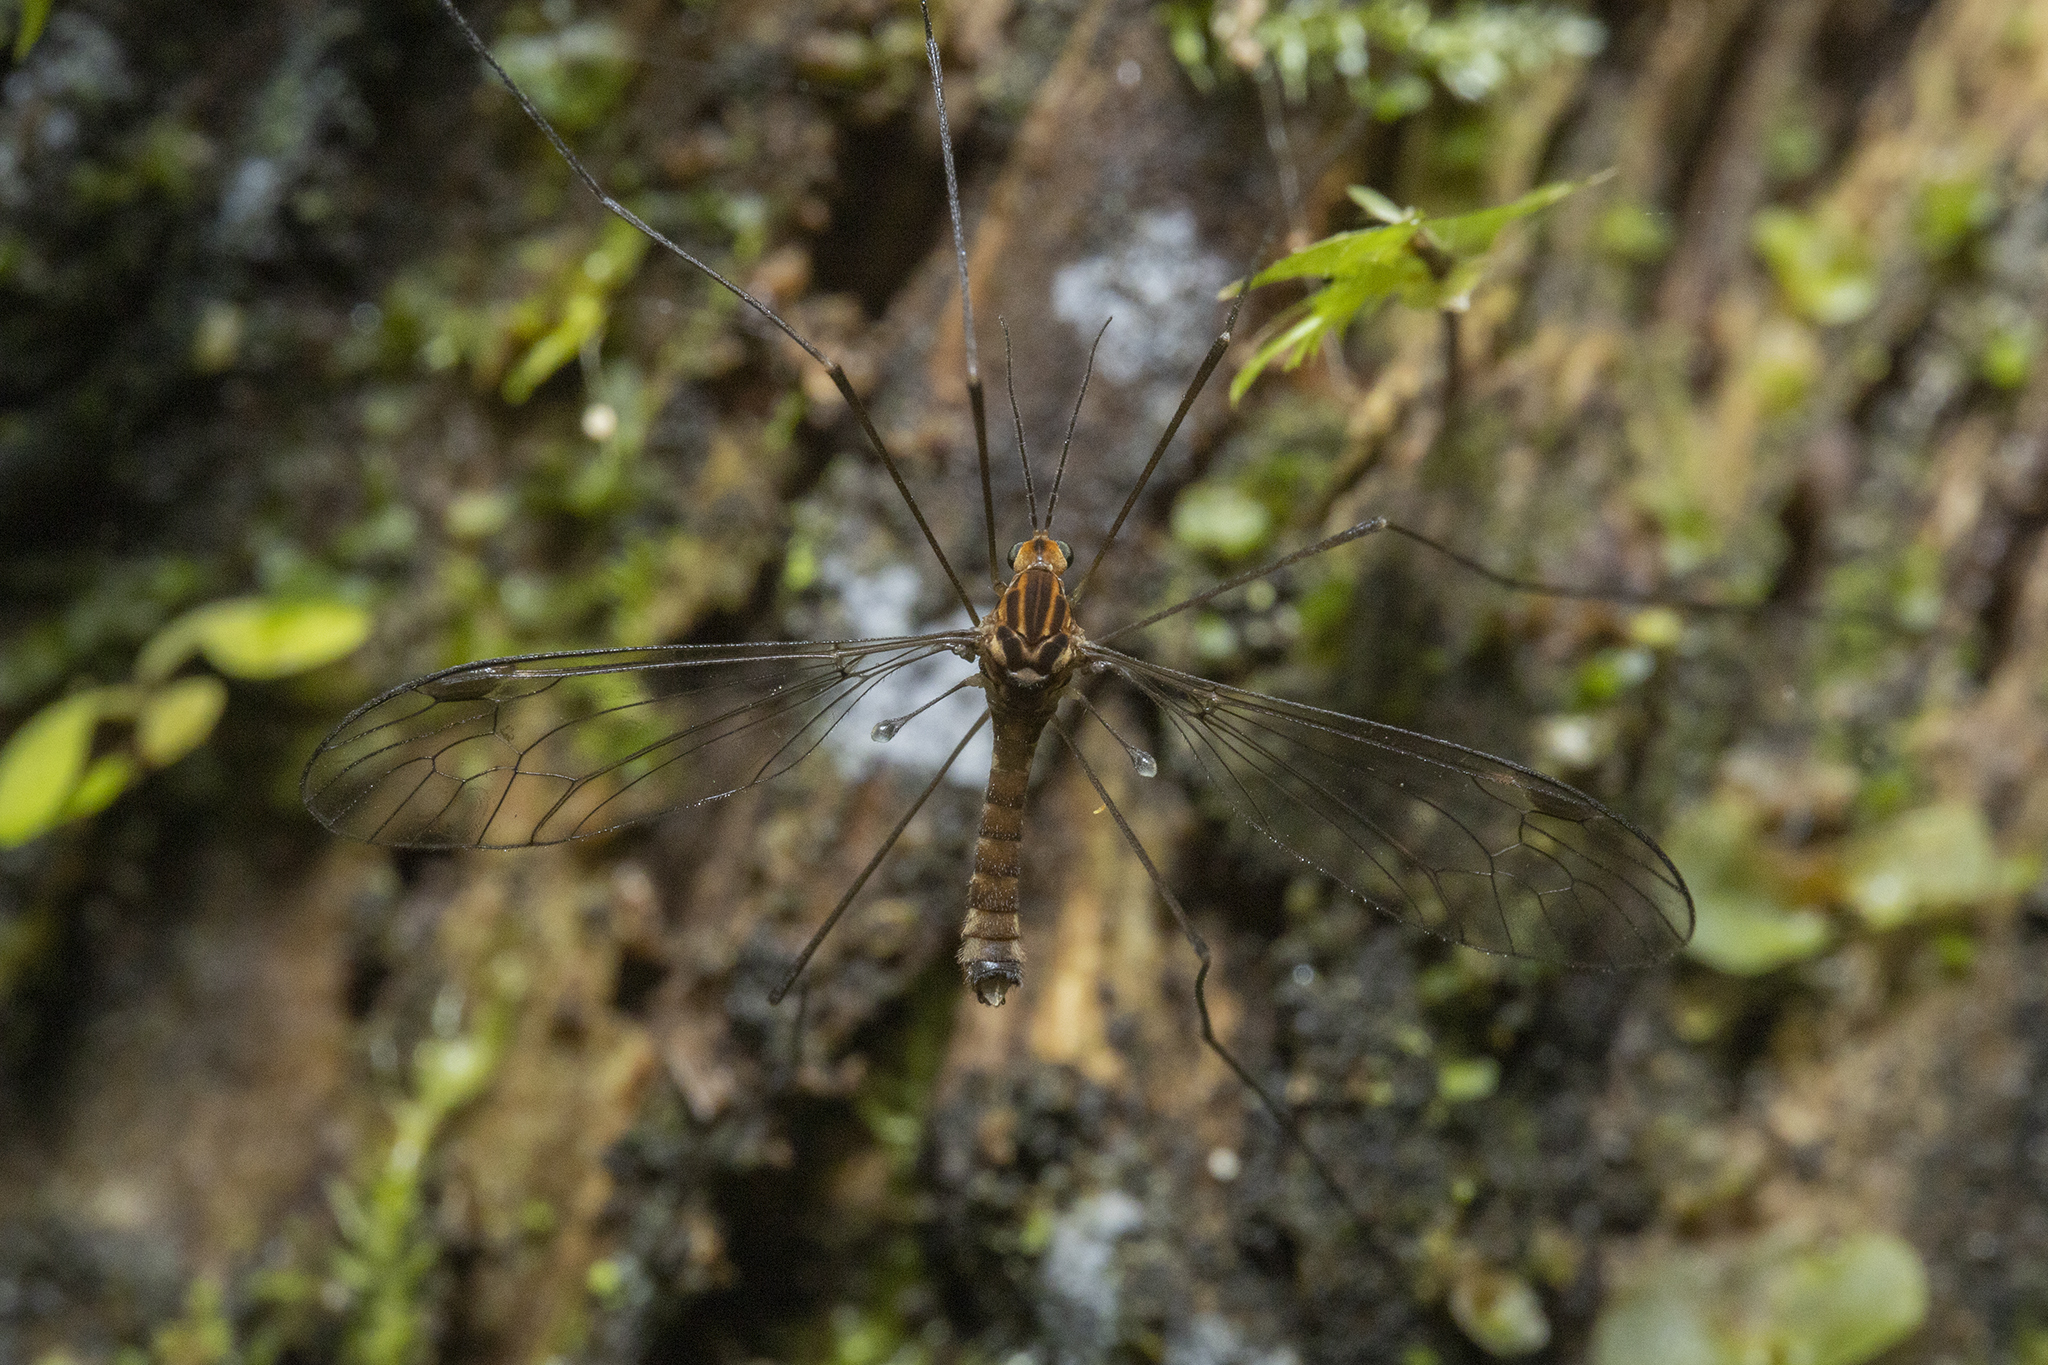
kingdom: Animalia
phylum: Arthropoda
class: Insecta
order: Diptera
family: Tipulidae
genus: Leptotarsus
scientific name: Leptotarsus obliquus
